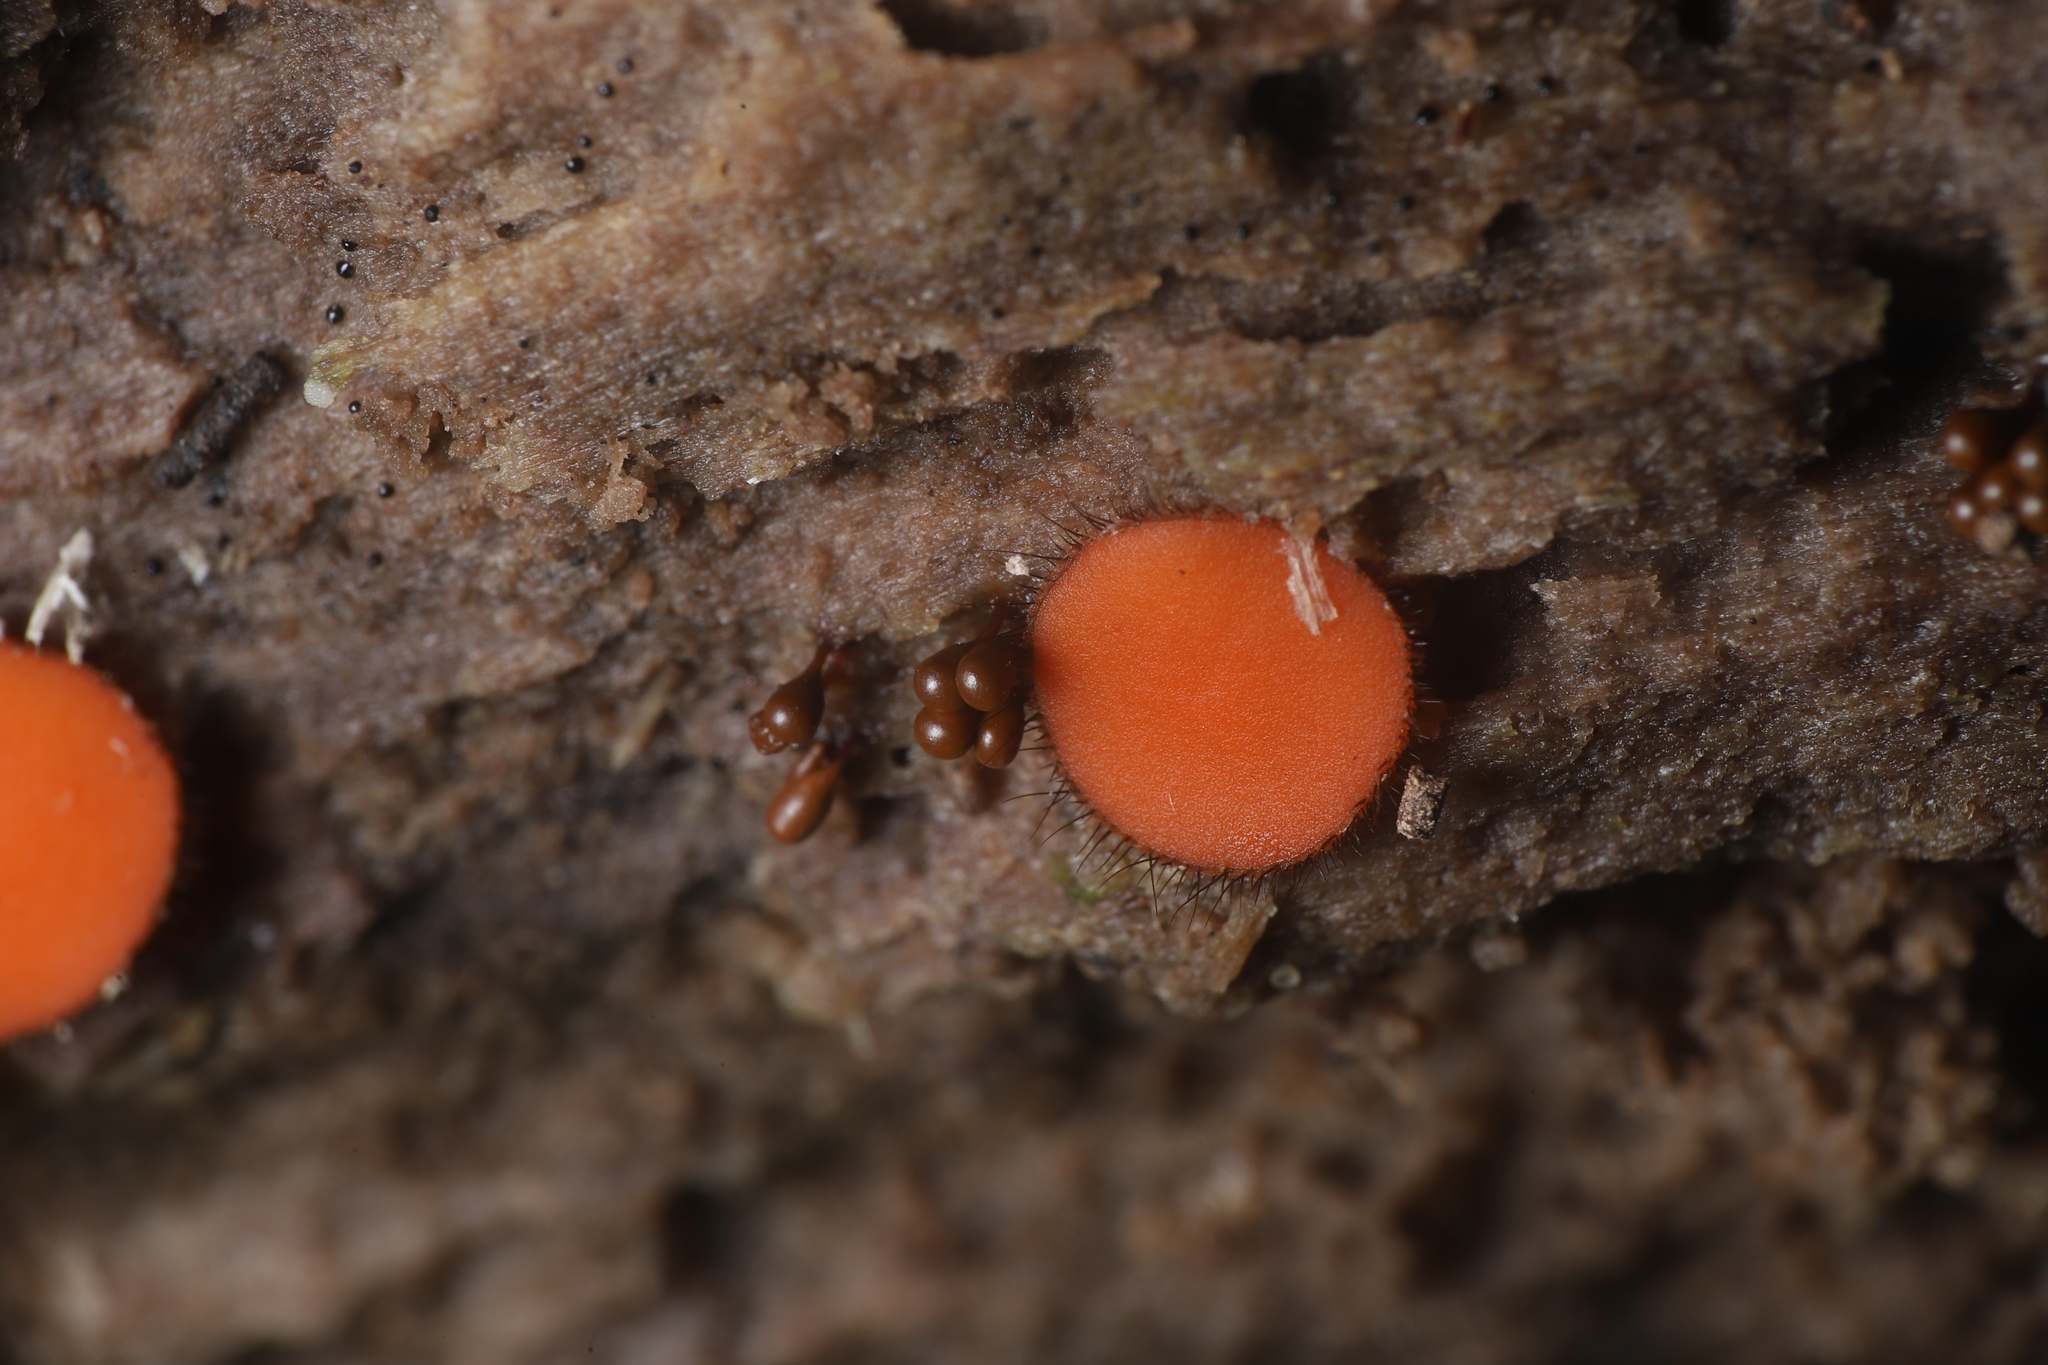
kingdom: Fungi
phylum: Ascomycota
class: Pezizomycetes
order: Pezizales
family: Pyronemataceae
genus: Scutellinia
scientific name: Scutellinia olivascens
